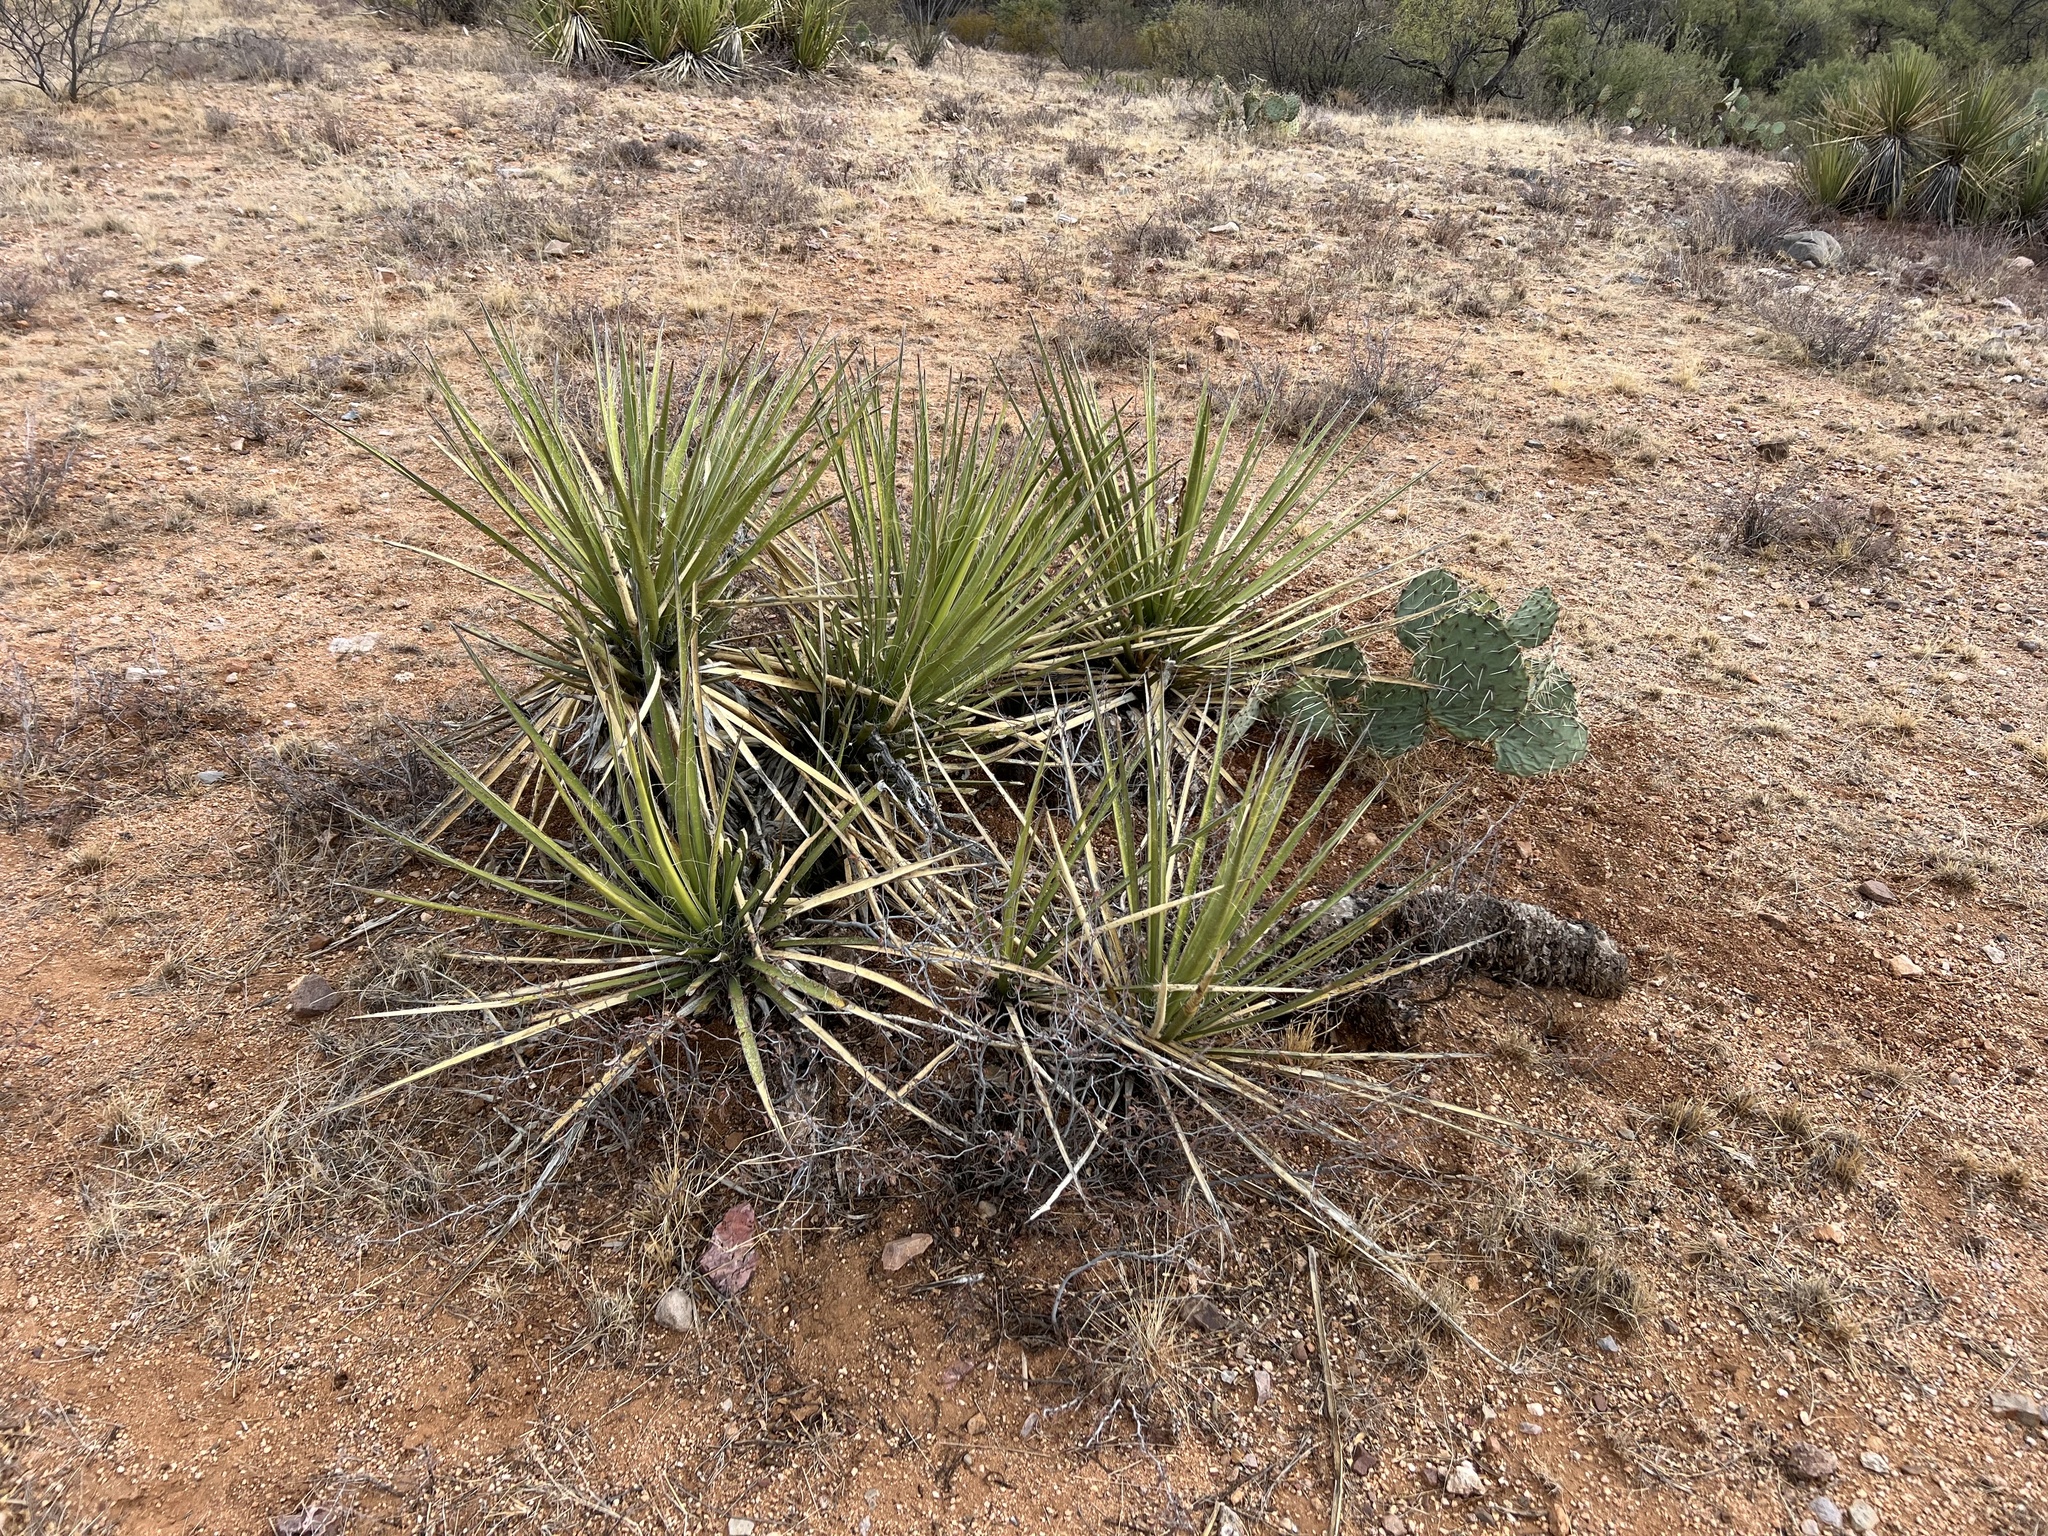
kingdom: Plantae
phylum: Tracheophyta
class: Liliopsida
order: Asparagales
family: Asparagaceae
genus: Yucca
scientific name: Yucca baccata
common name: Banana yucca
